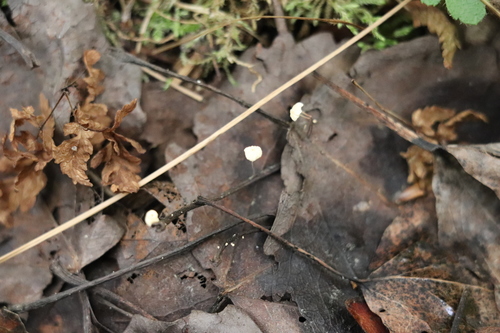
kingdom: Fungi
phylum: Basidiomycota
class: Agaricomycetes
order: Agaricales
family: Marasmiaceae
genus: Marasmius
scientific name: Marasmius epiphyllus
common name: Leaf parachute
